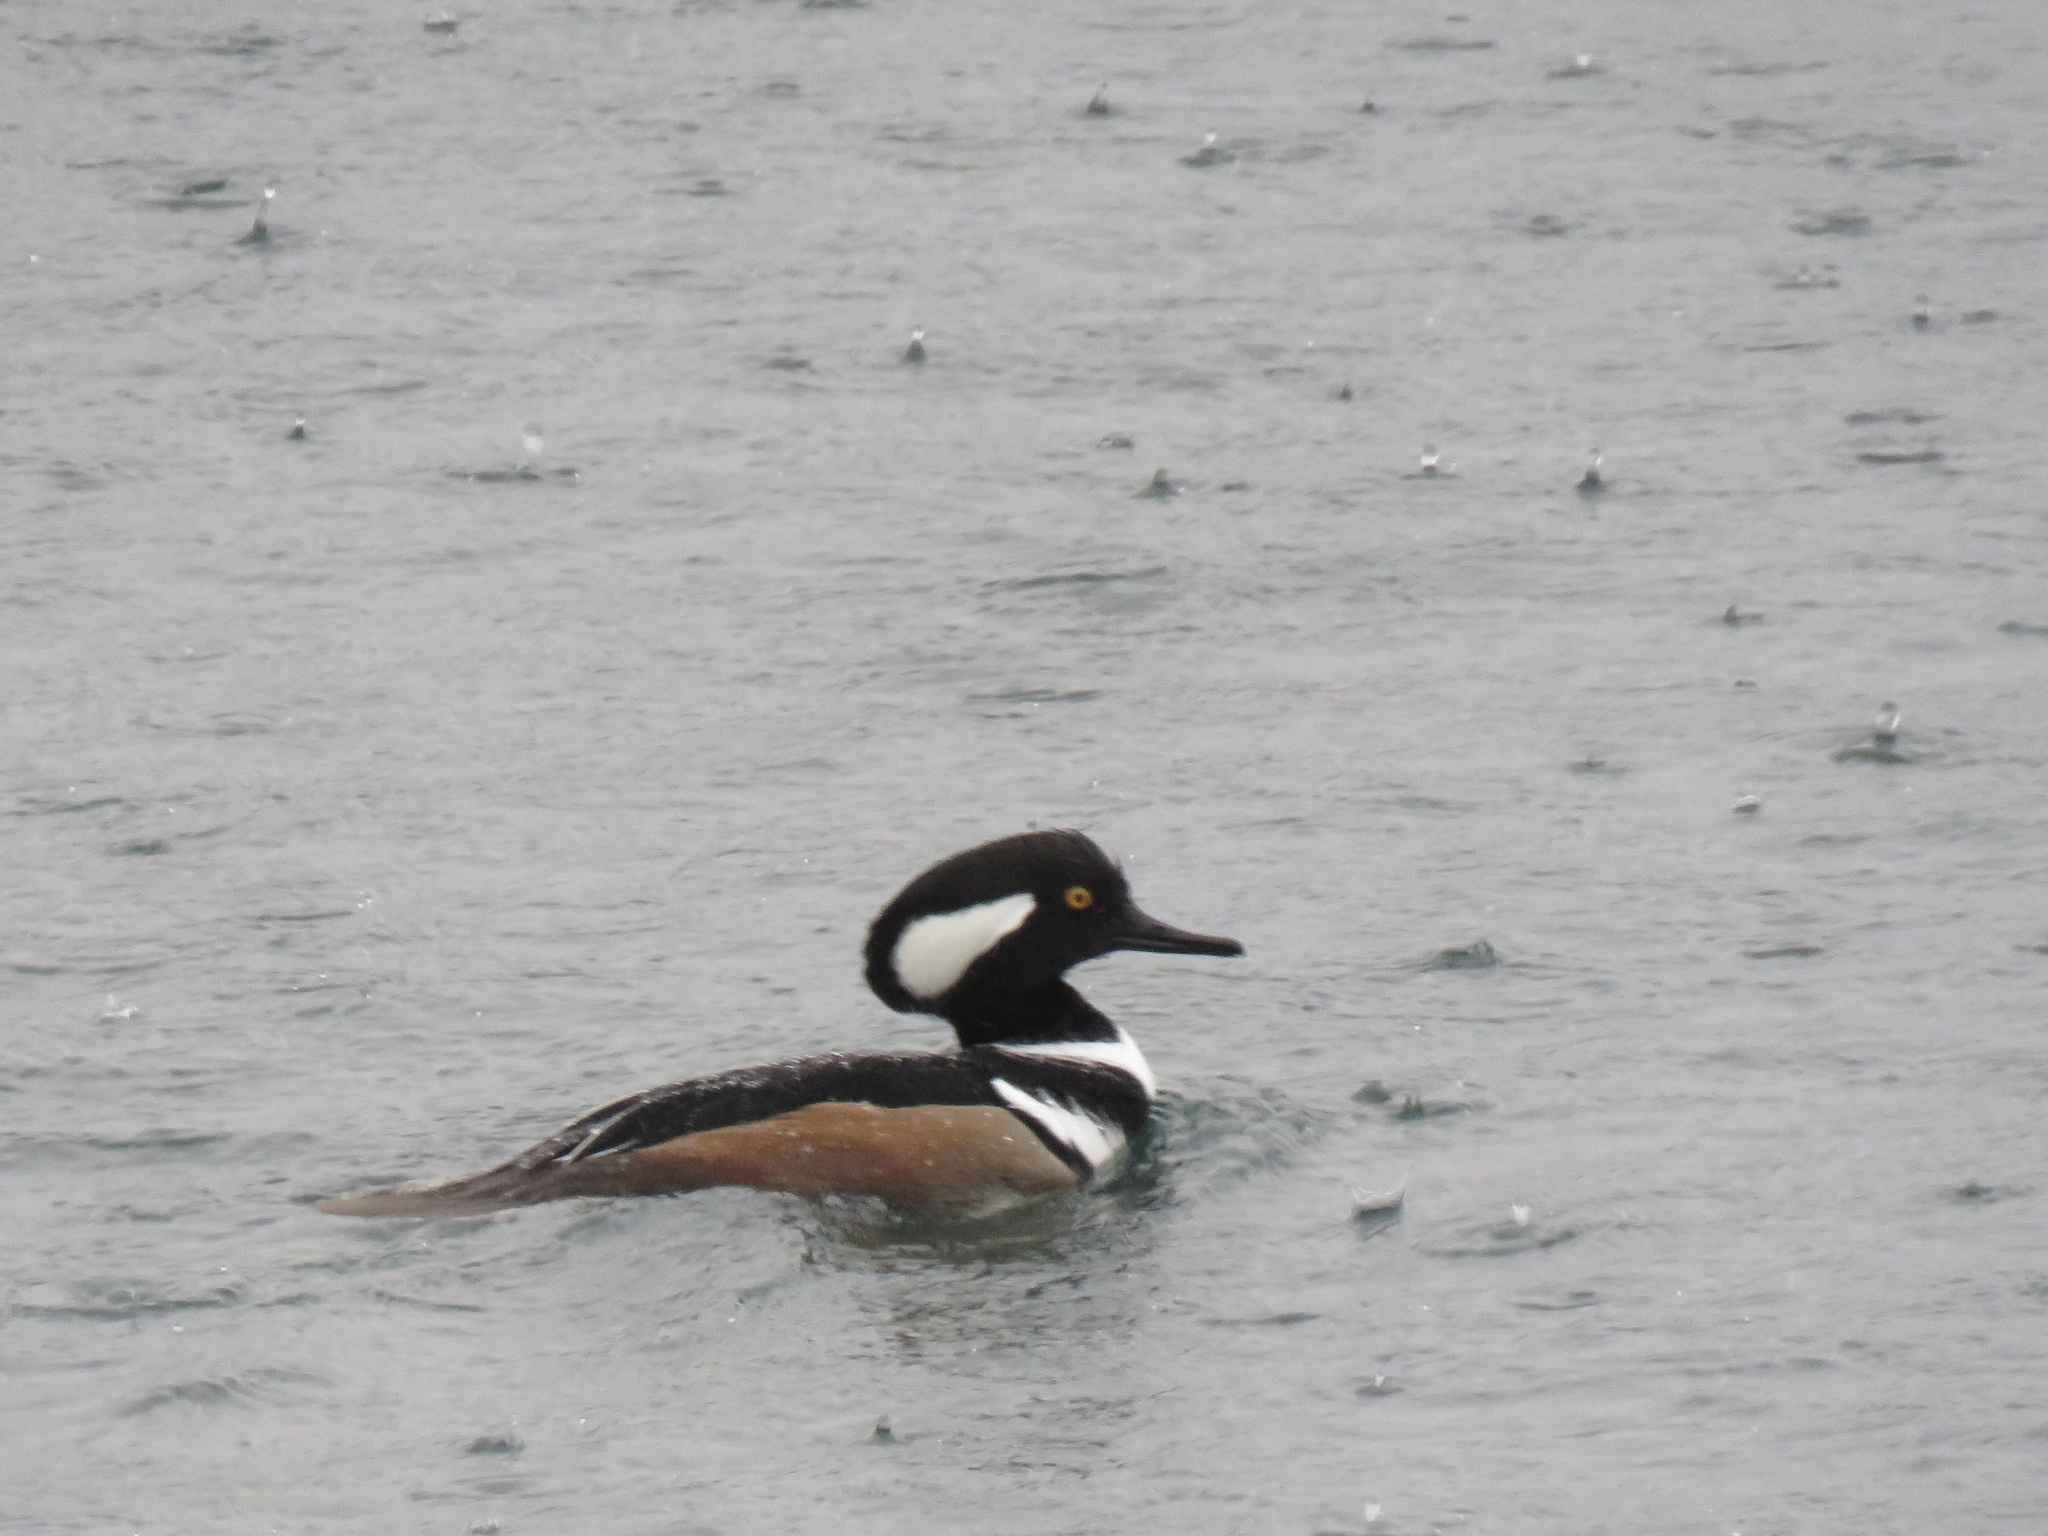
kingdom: Animalia
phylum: Chordata
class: Aves
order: Anseriformes
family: Anatidae
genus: Lophodytes
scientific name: Lophodytes cucullatus
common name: Hooded merganser
